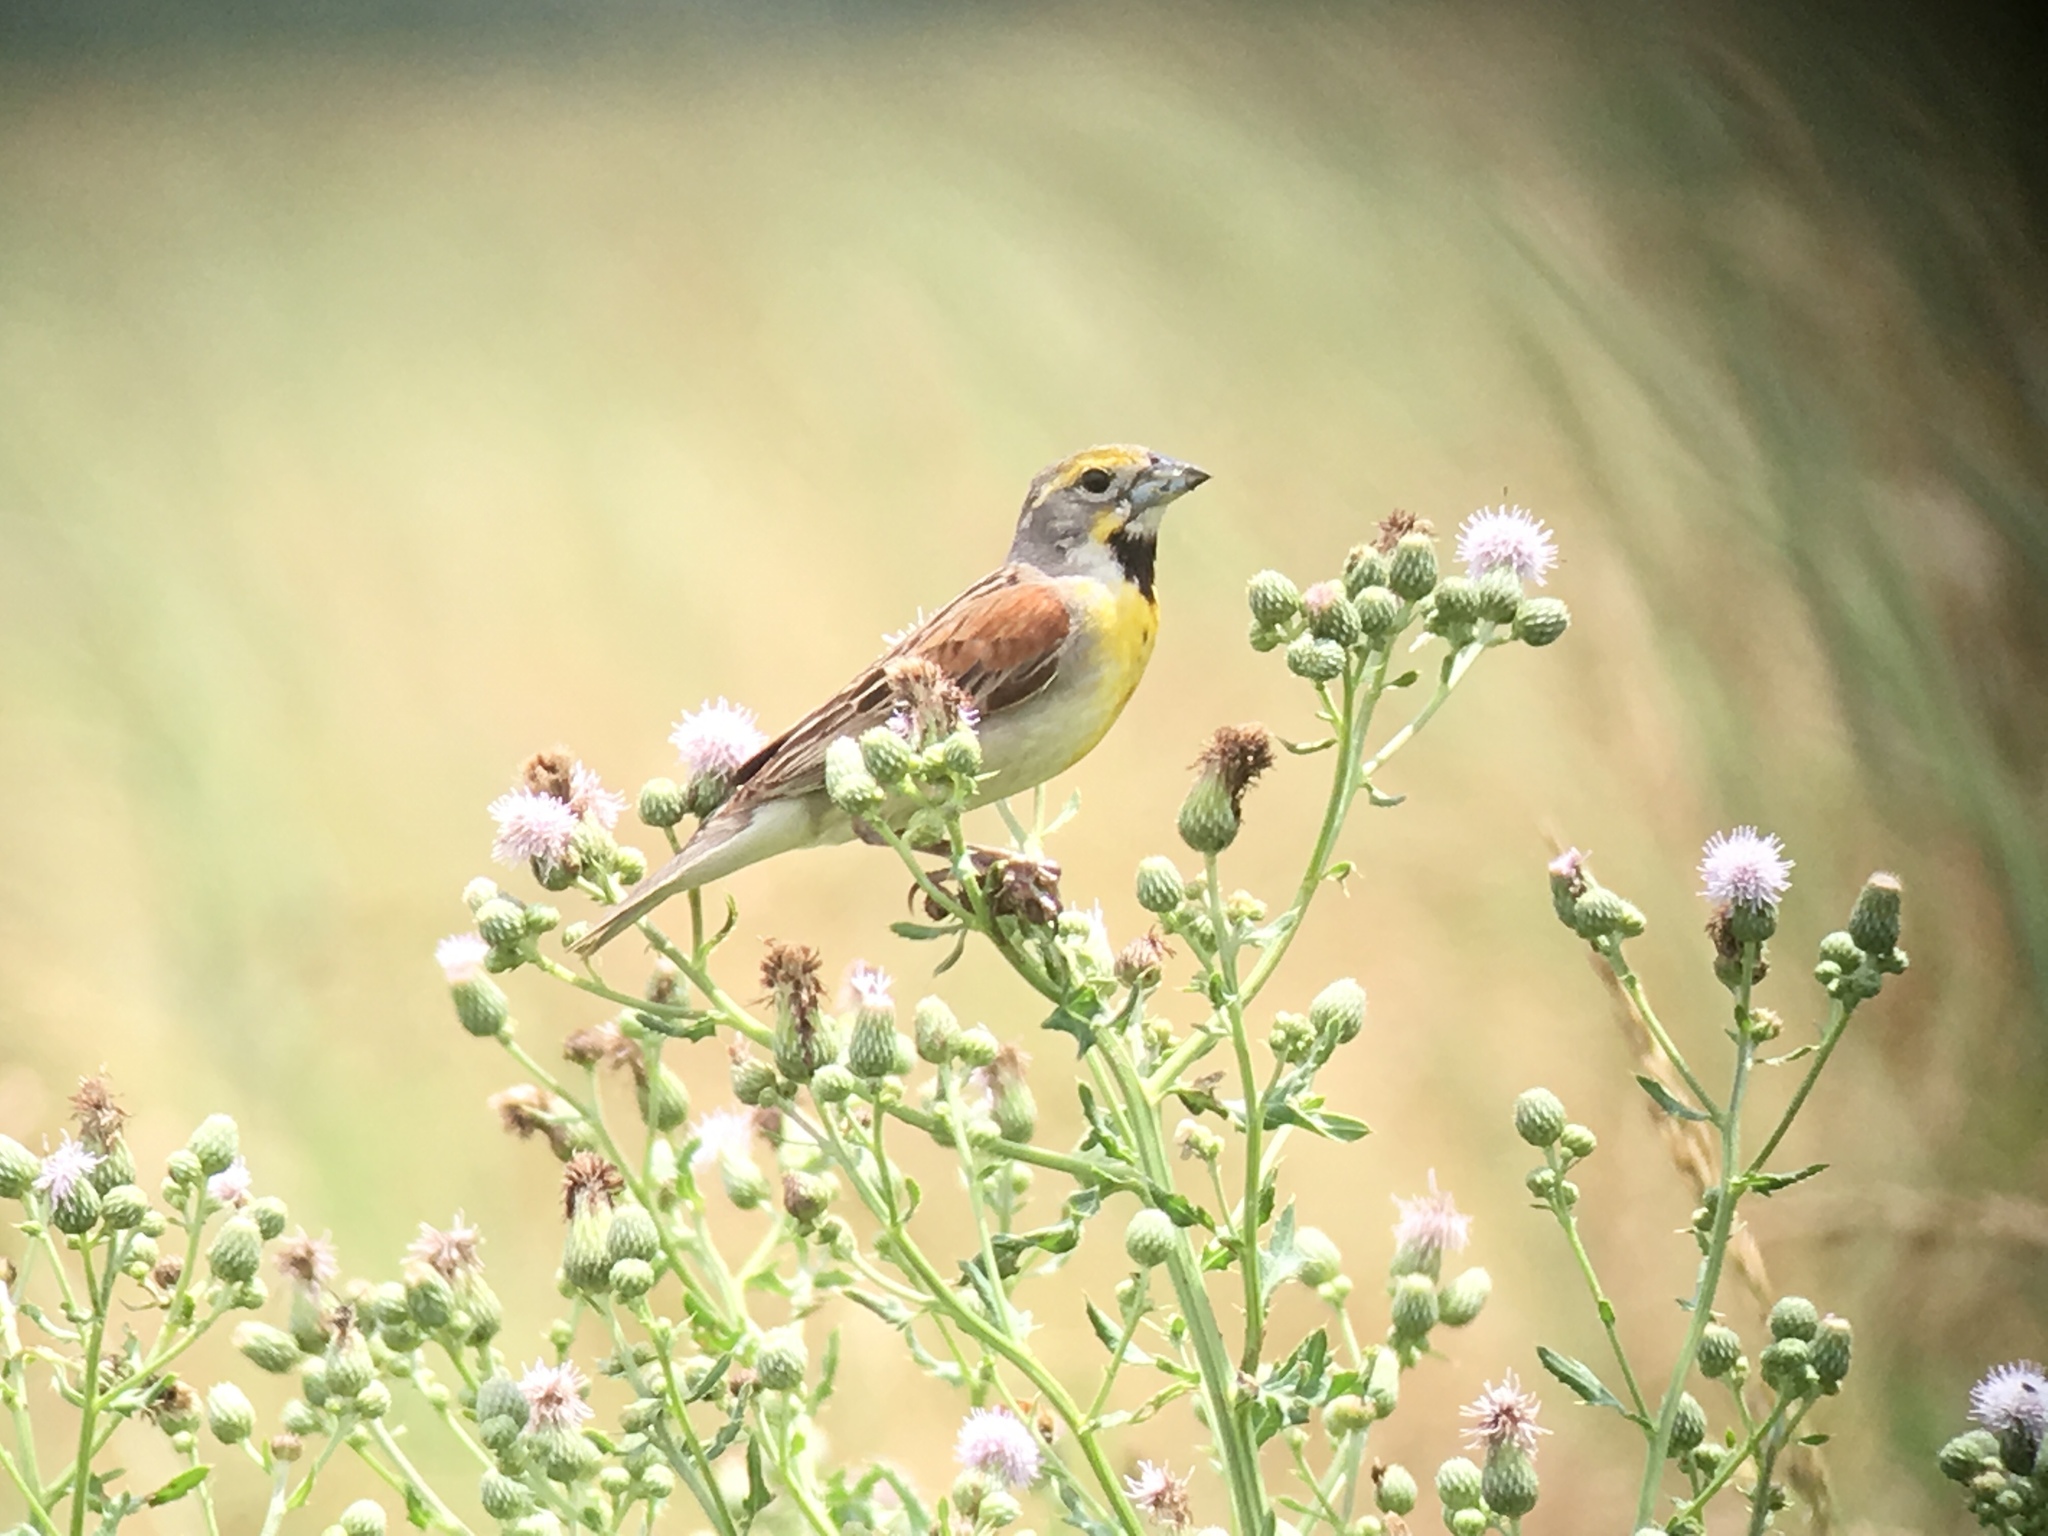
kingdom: Animalia
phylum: Chordata
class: Aves
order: Passeriformes
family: Cardinalidae
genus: Spiza
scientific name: Spiza americana
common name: Dickcissel
